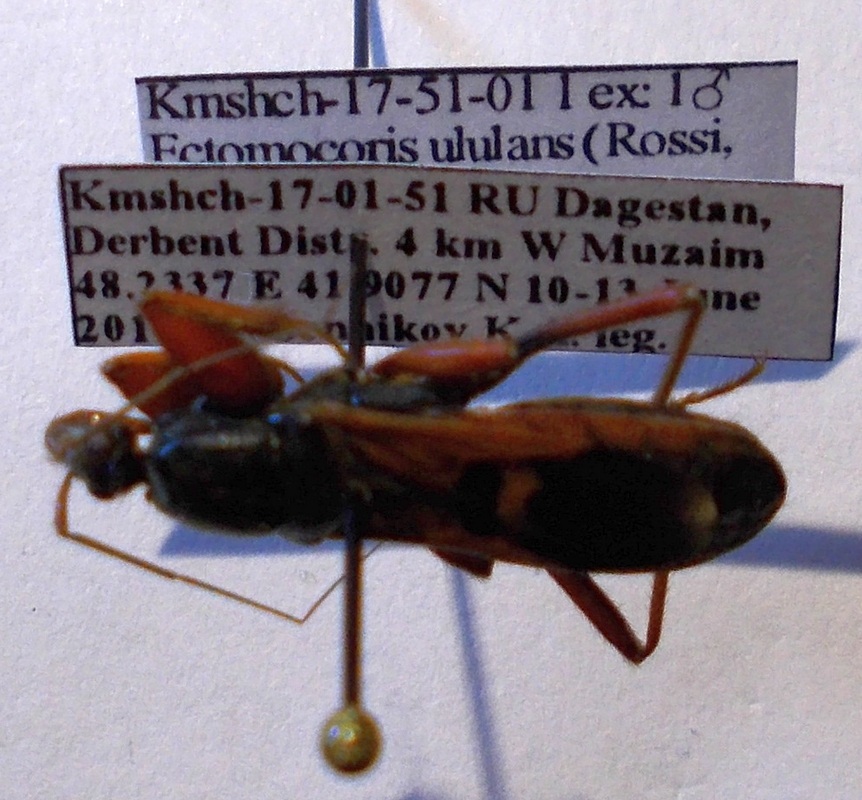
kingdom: Animalia
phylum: Arthropoda
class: Insecta
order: Hemiptera
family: Reduviidae
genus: Ectomocoris
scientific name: Ectomocoris ululans
